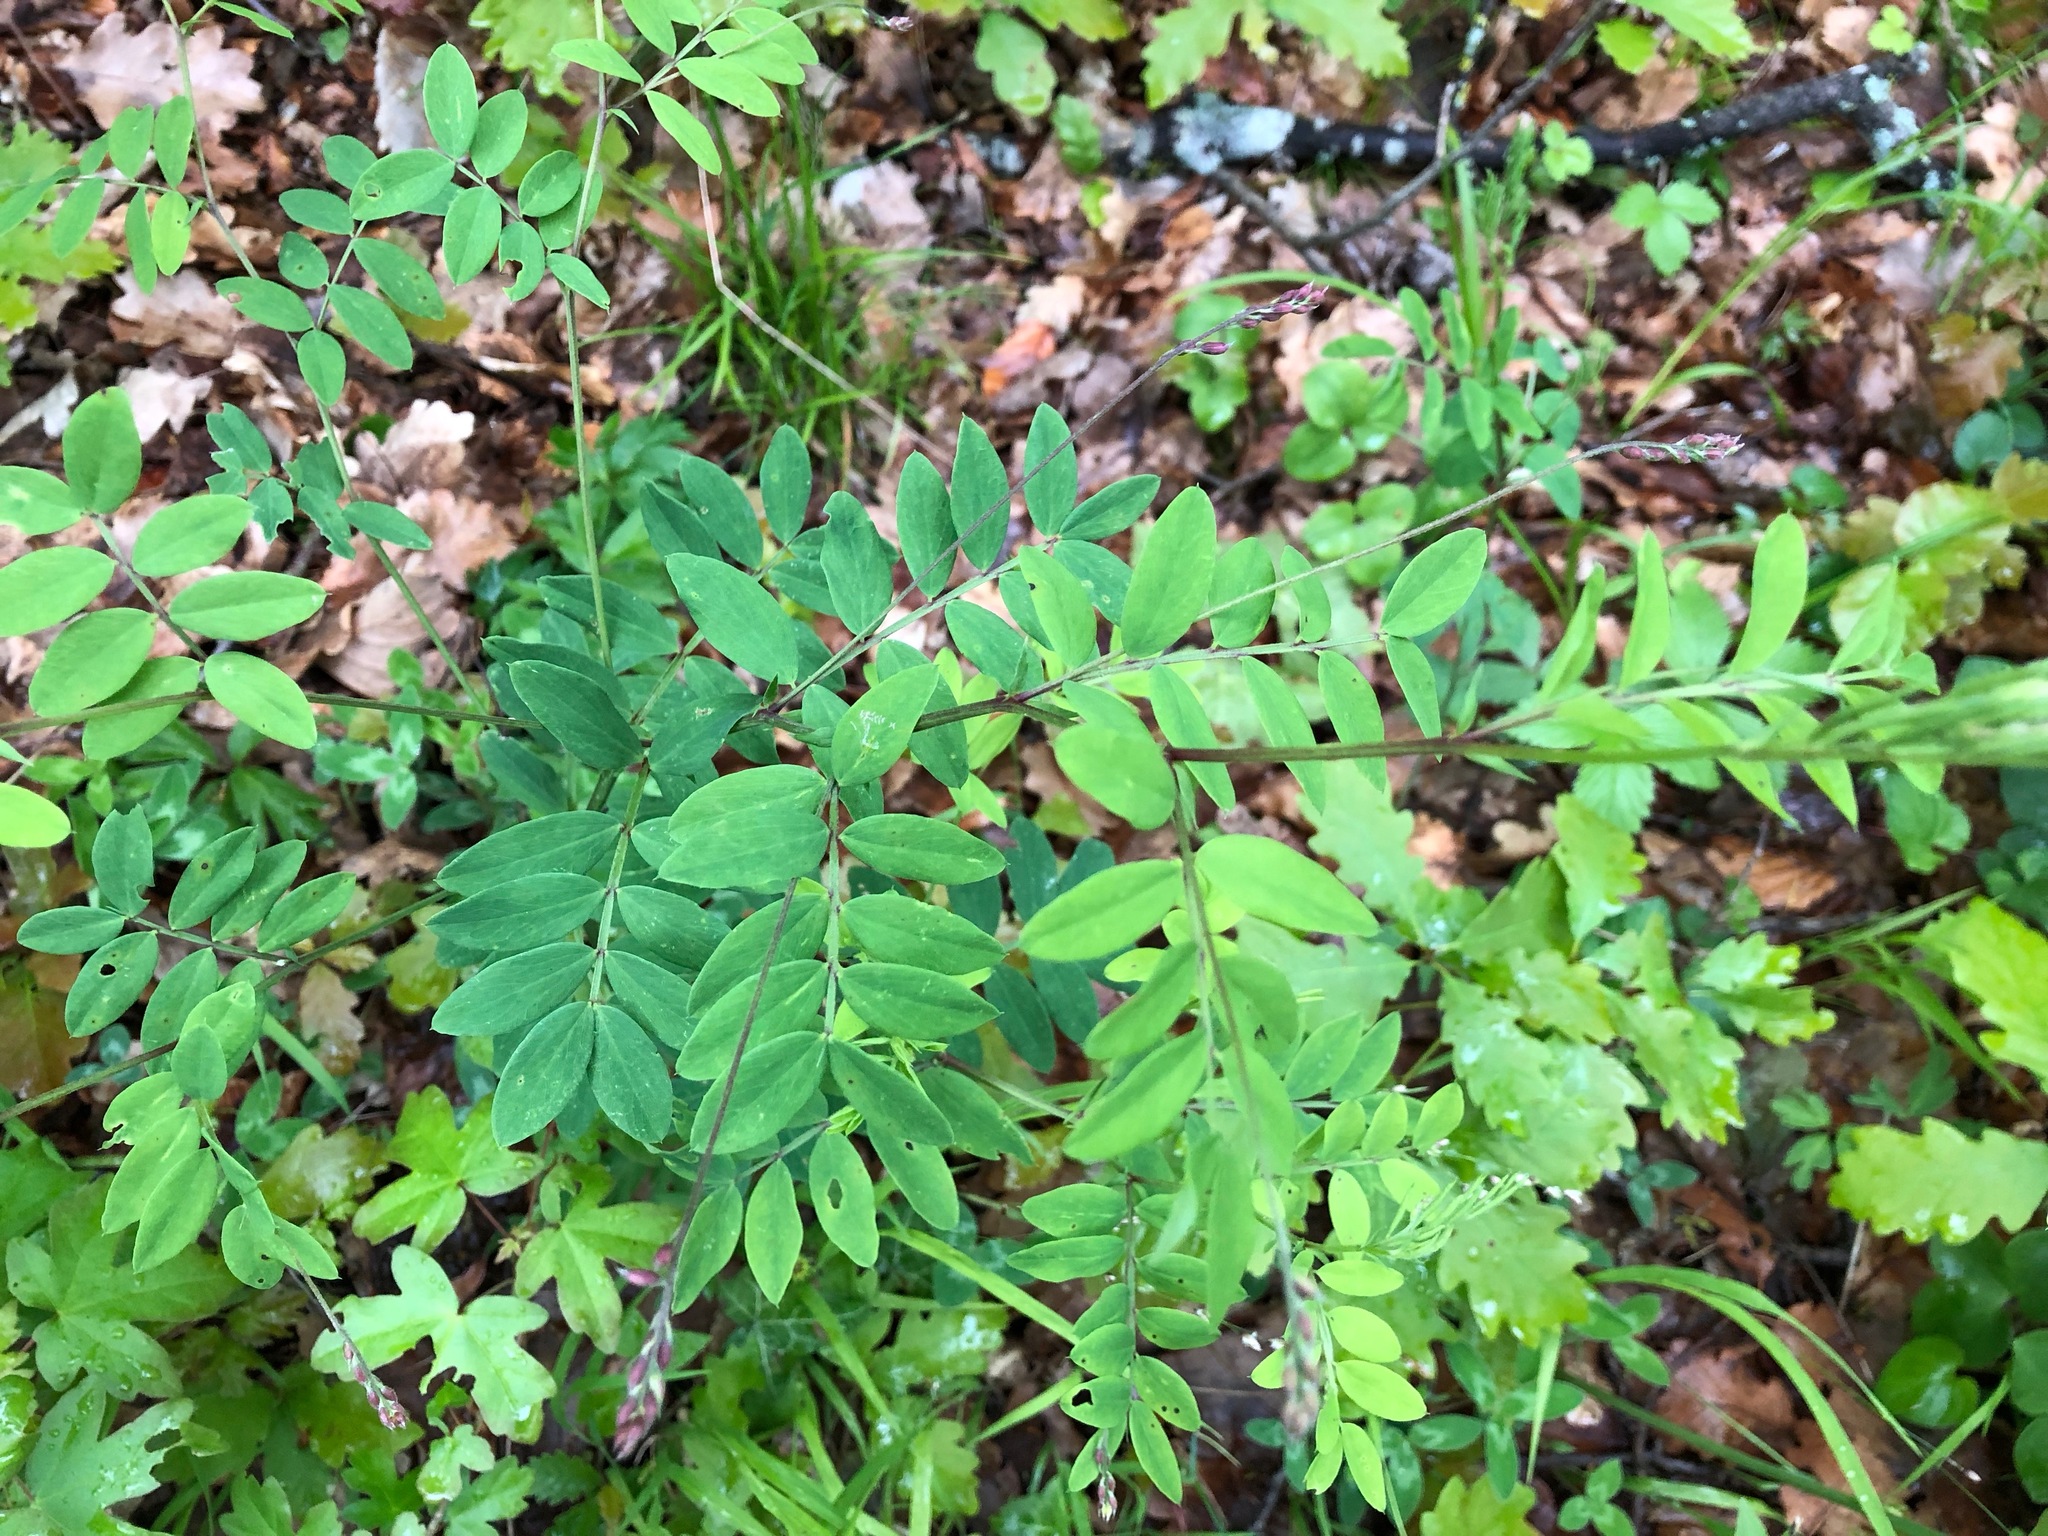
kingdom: Plantae
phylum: Tracheophyta
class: Magnoliopsida
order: Fabales
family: Fabaceae
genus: Lathyrus
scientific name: Lathyrus niger
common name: Black pea
